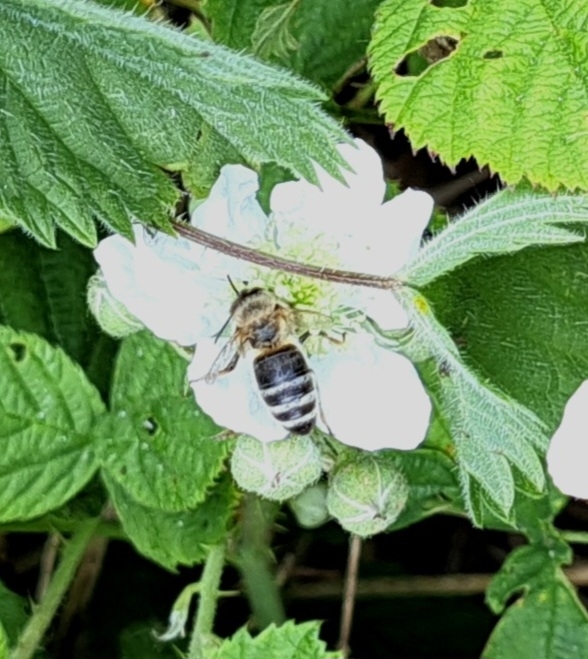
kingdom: Animalia
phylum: Arthropoda
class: Insecta
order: Hymenoptera
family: Apidae
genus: Apis
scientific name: Apis mellifera
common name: Honey bee
